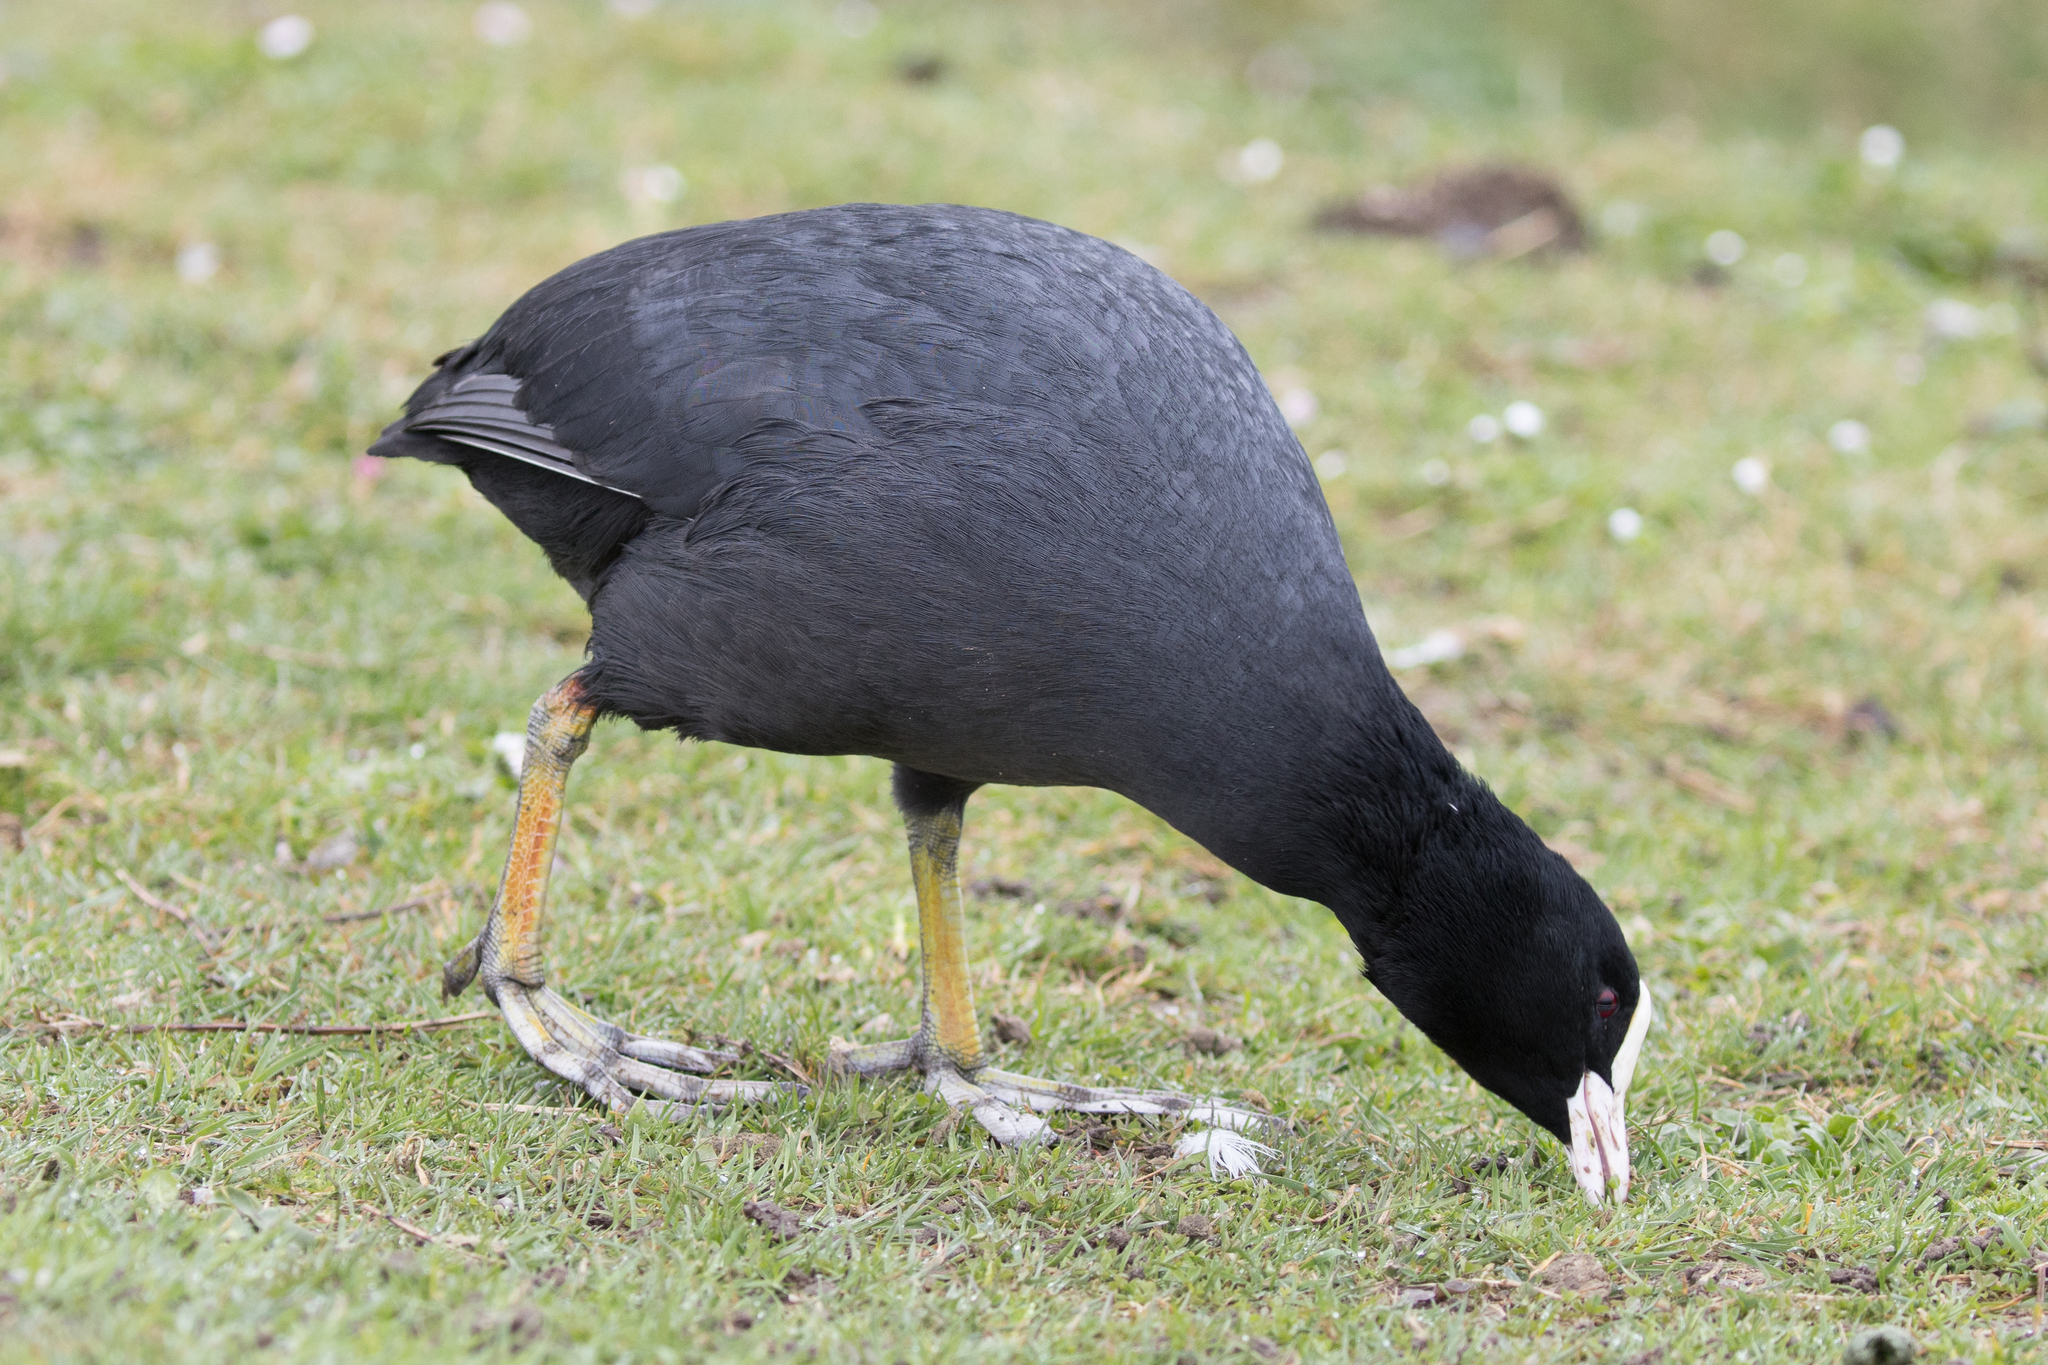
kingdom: Animalia
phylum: Chordata
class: Aves
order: Gruiformes
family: Rallidae
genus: Fulica
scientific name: Fulica atra
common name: Eurasian coot
